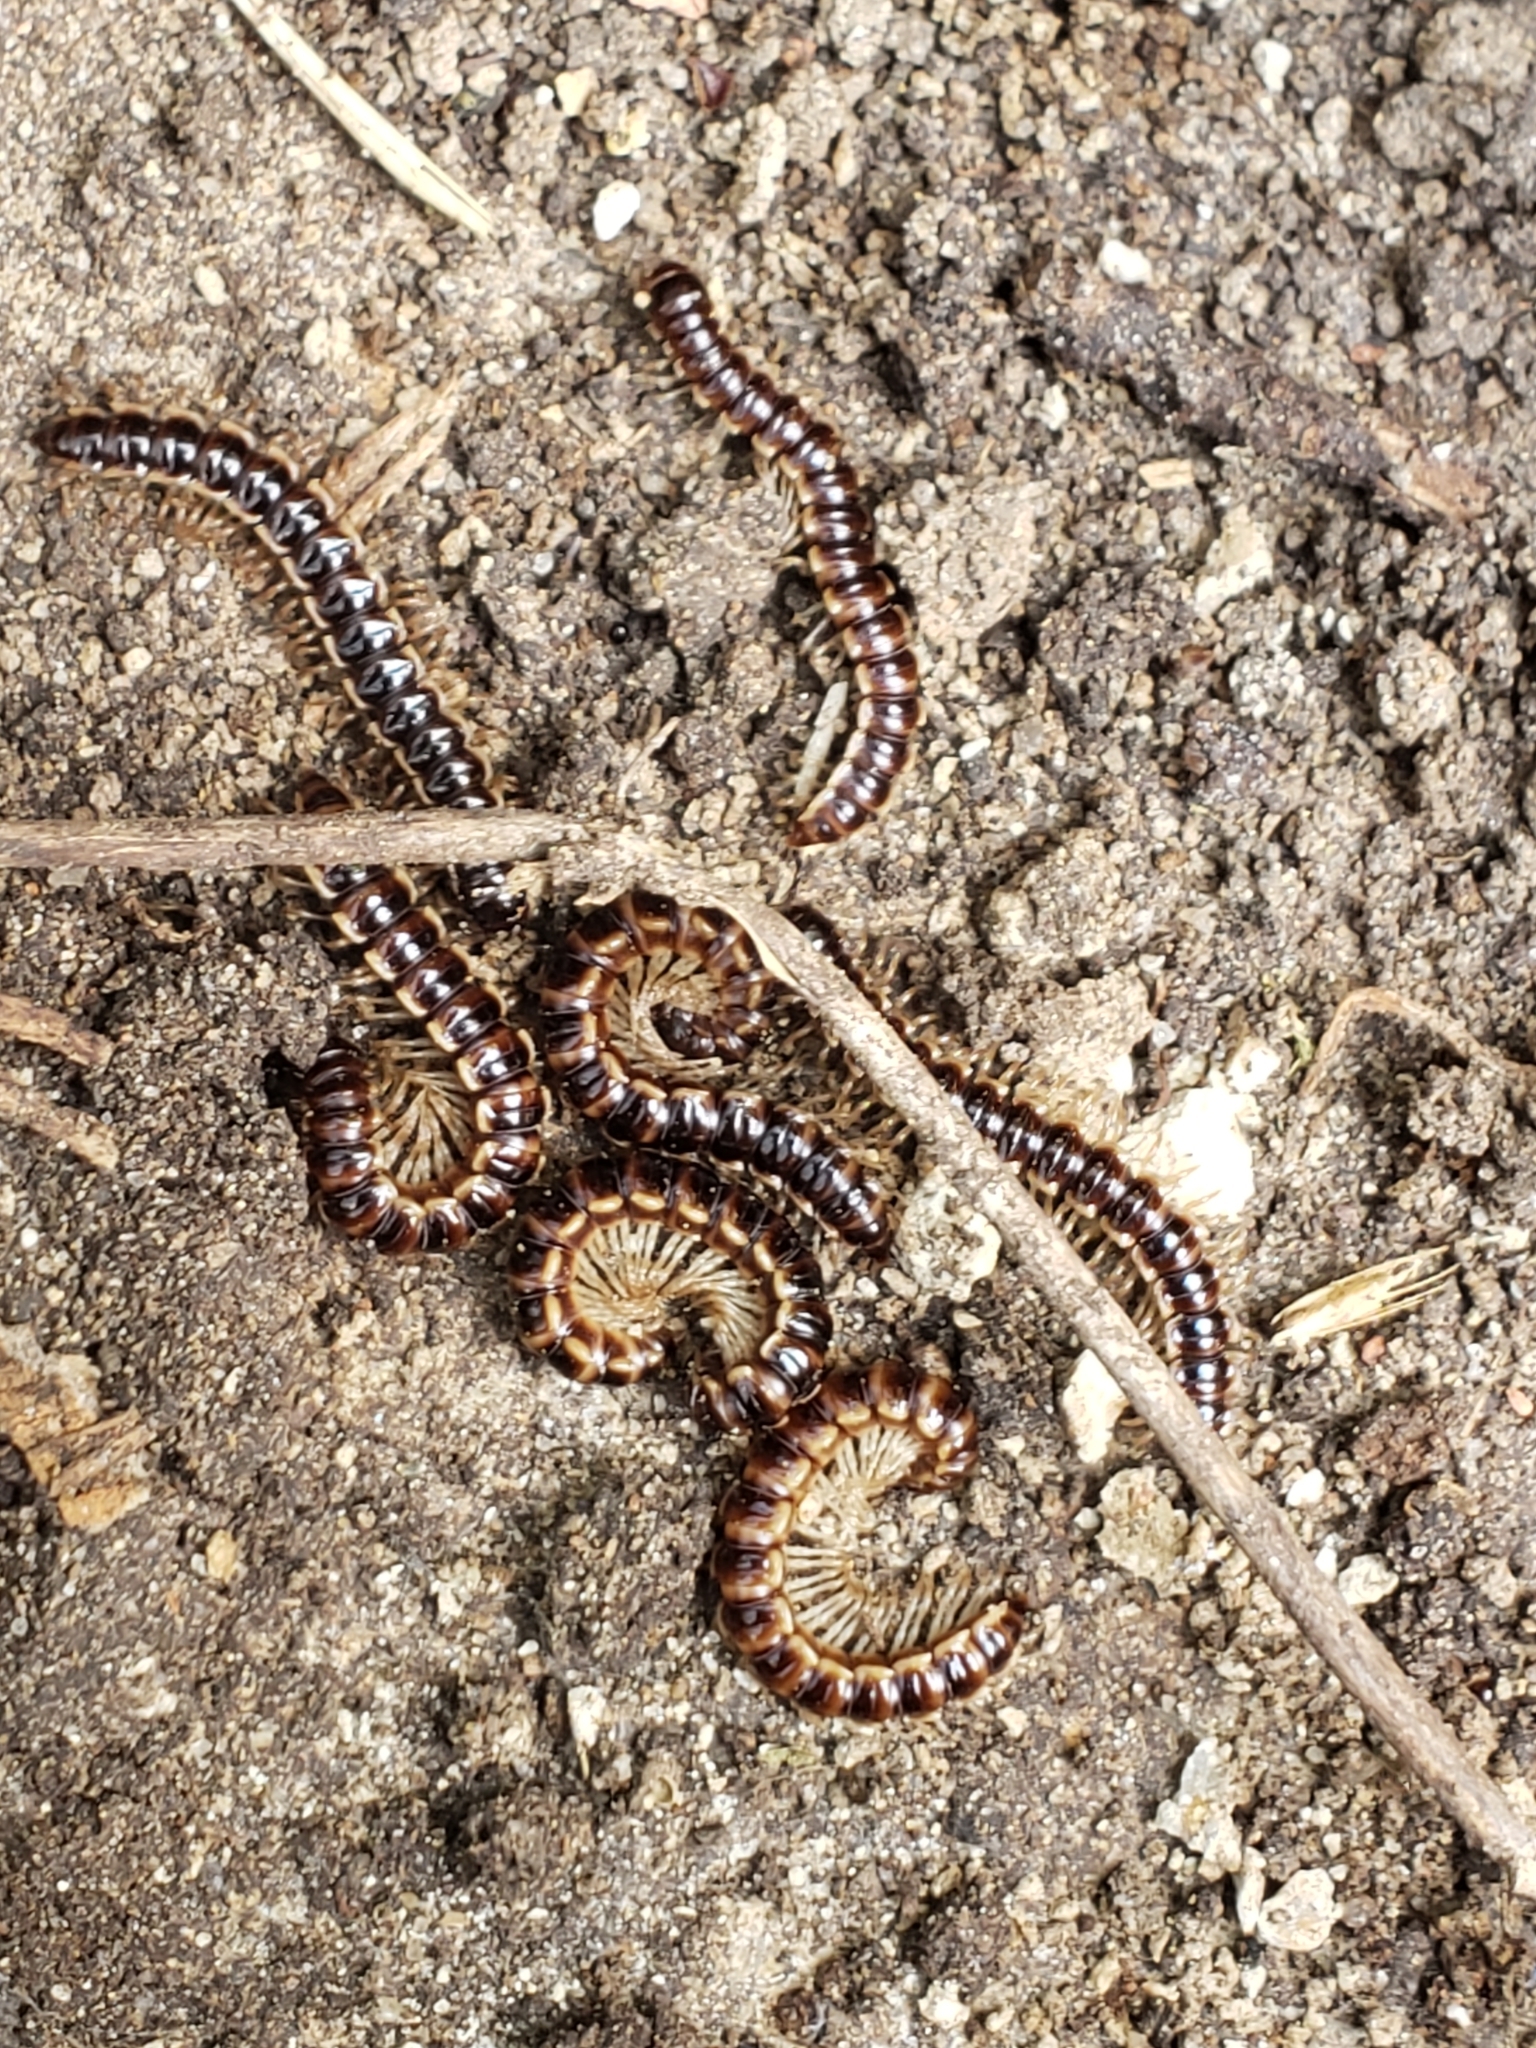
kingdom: Animalia
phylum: Arthropoda
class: Diplopoda
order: Polydesmida
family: Paradoxosomatidae
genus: Oxidus
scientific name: Oxidus gracilis
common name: Greenhouse millipede
